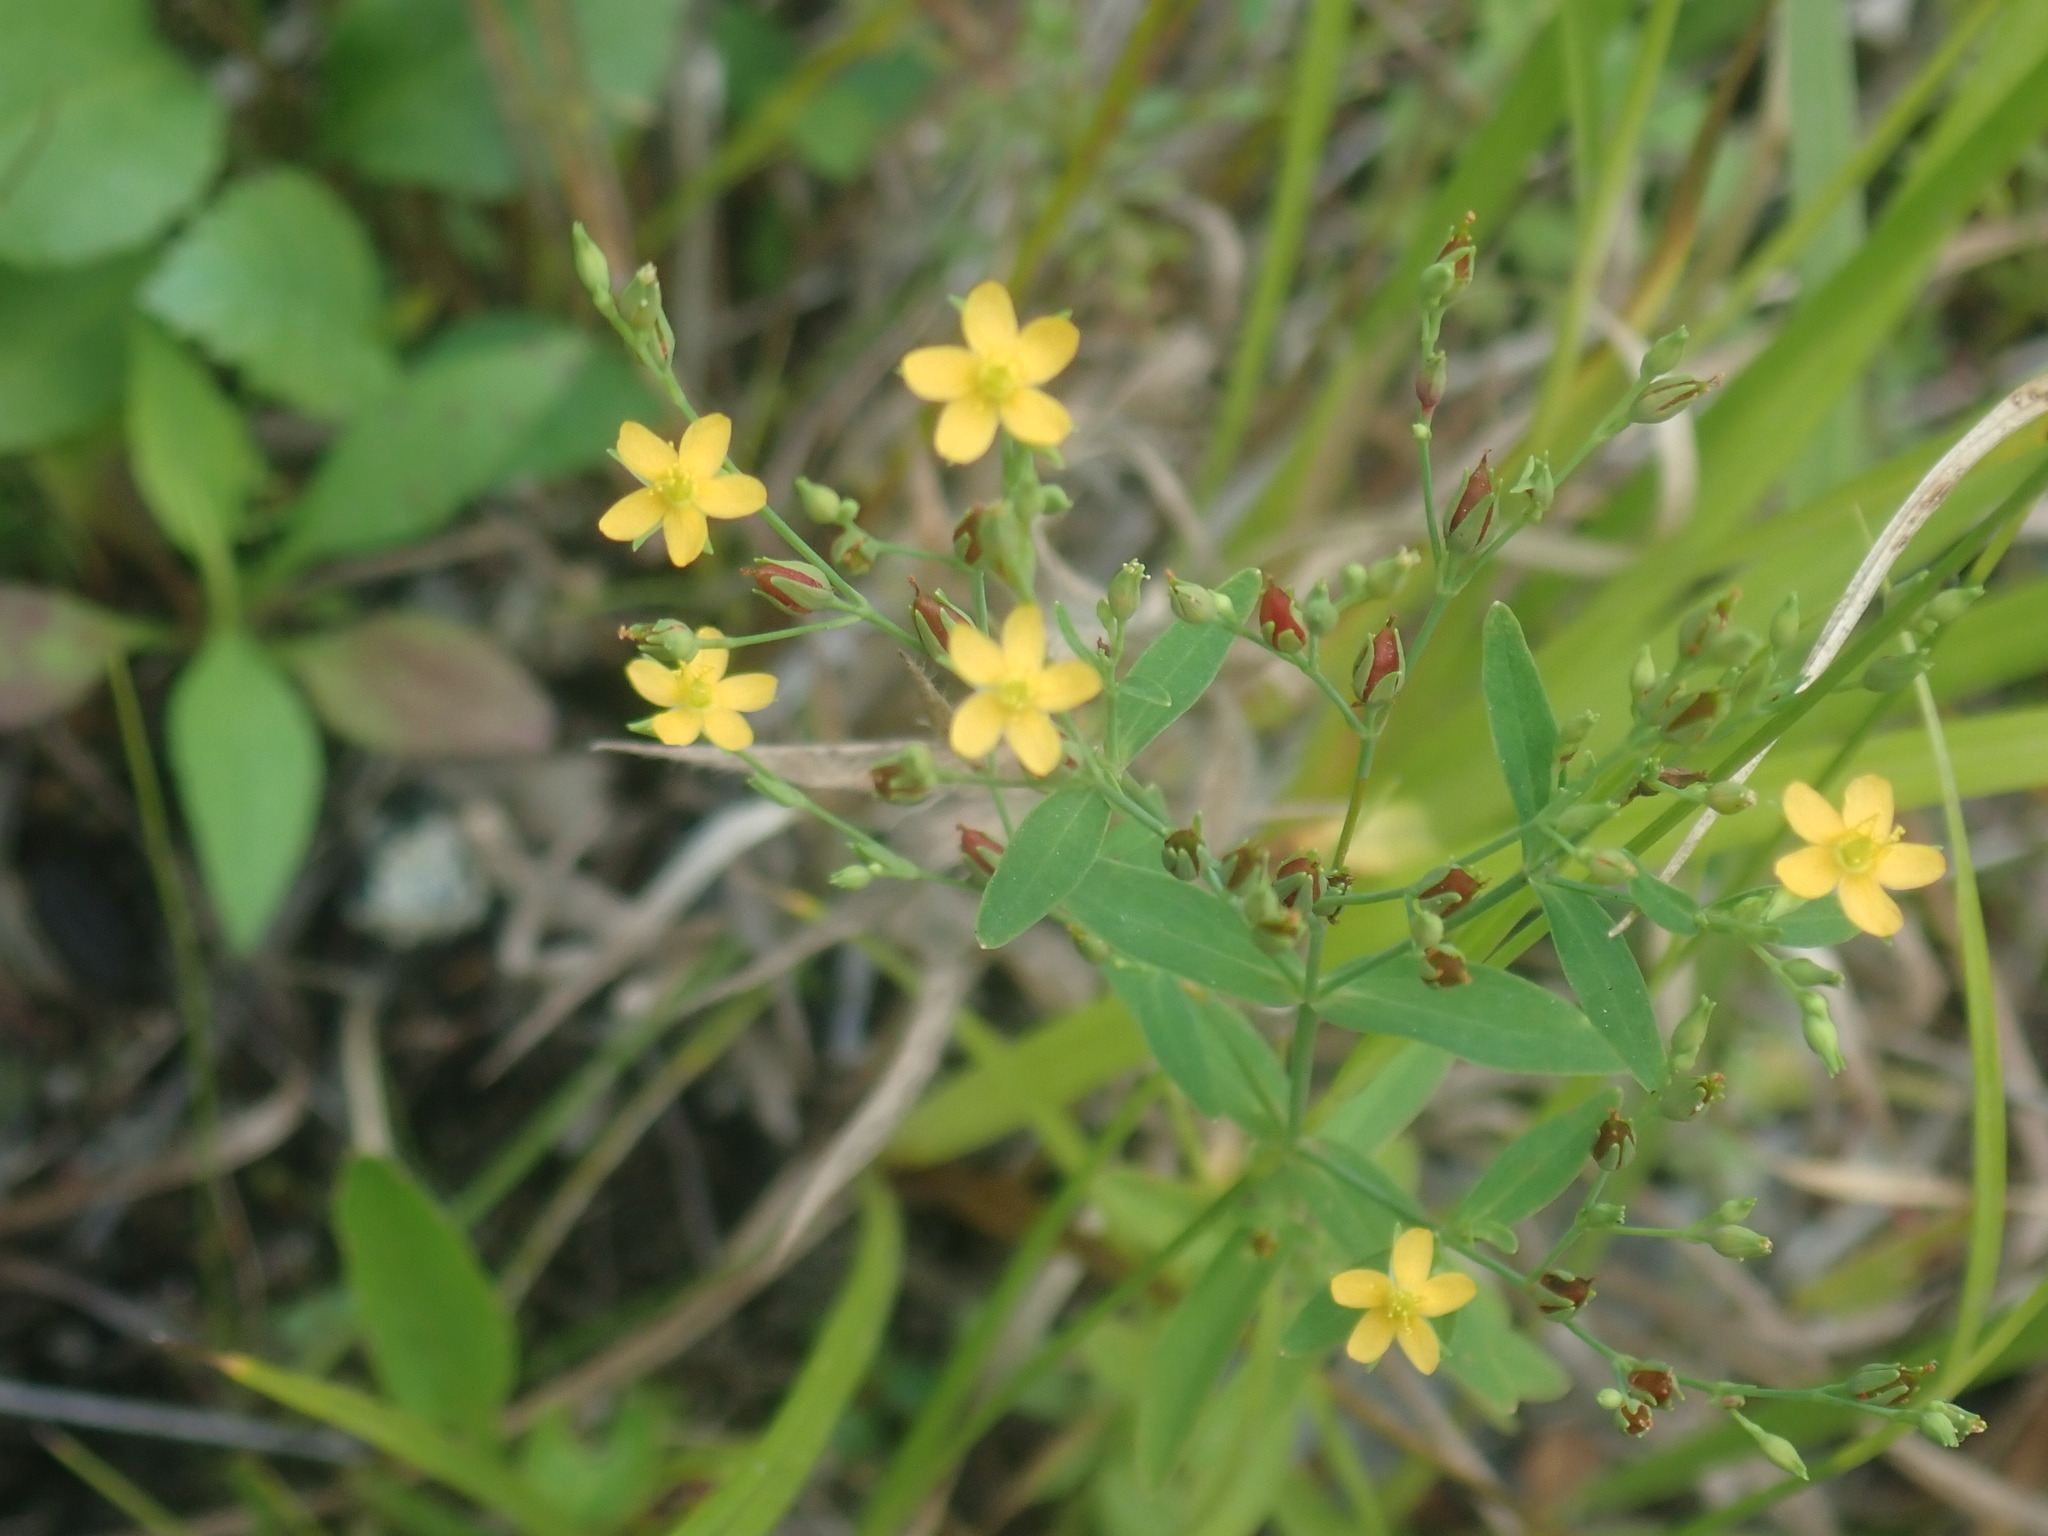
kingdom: Plantae
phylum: Tracheophyta
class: Magnoliopsida
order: Malpighiales
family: Hypericaceae
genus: Hypericum
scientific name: Hypericum mutilum
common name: Dwarf st. john's-wort
